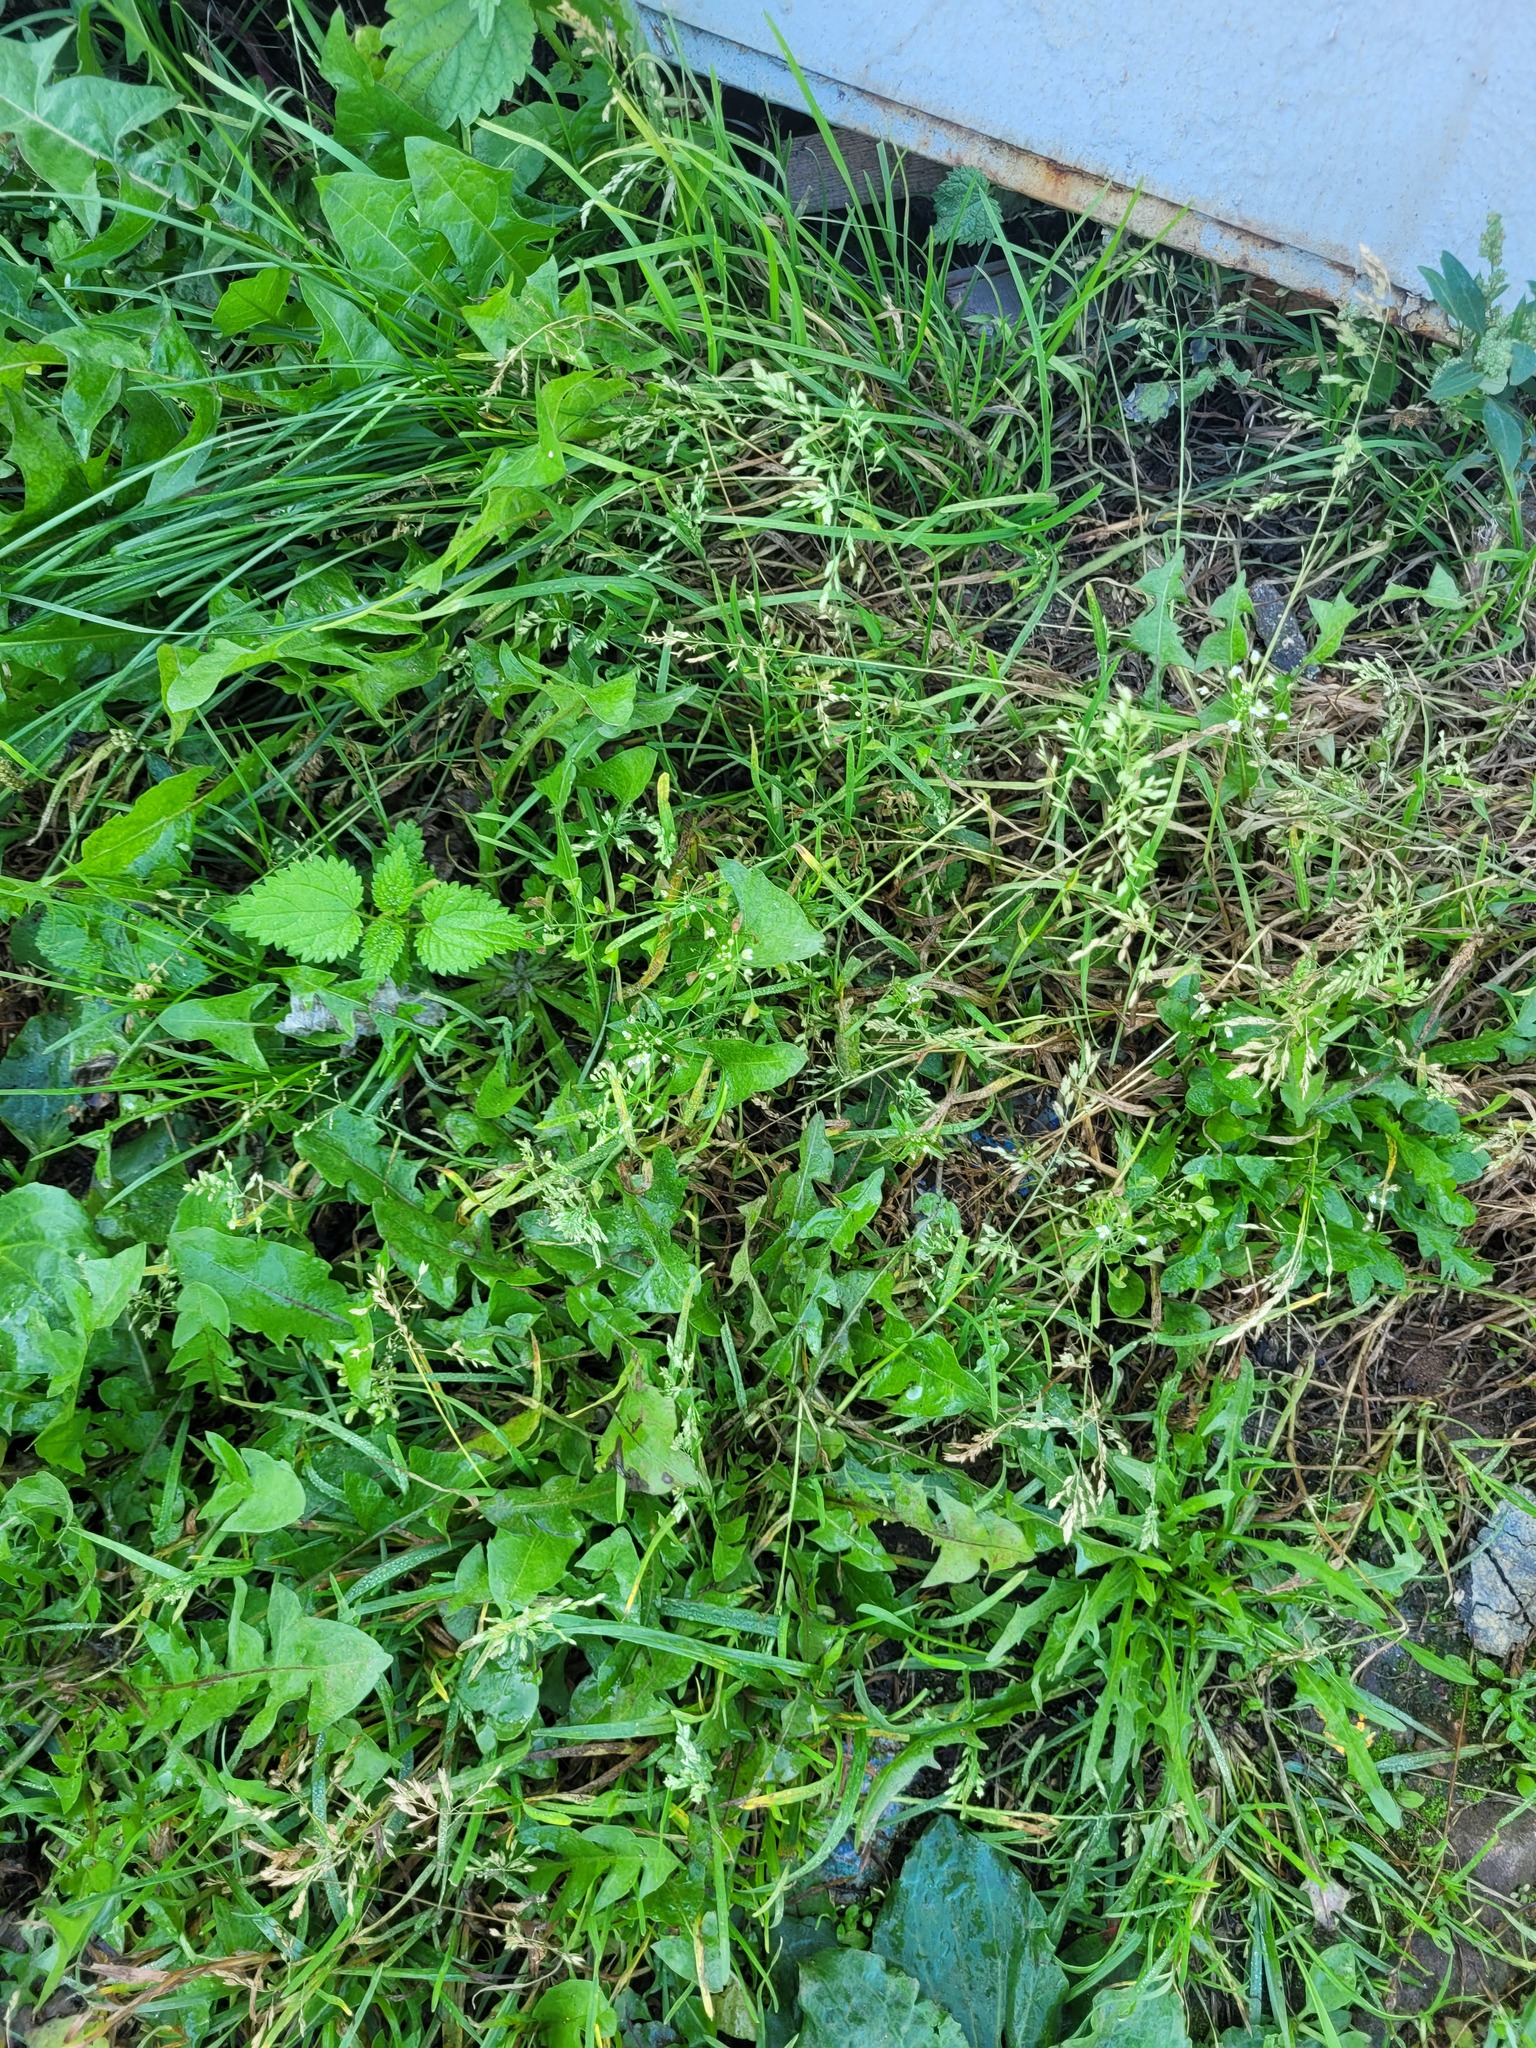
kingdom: Plantae
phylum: Tracheophyta
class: Magnoliopsida
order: Brassicales
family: Brassicaceae
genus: Capsella
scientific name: Capsella bursa-pastoris
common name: Shepherd's purse
